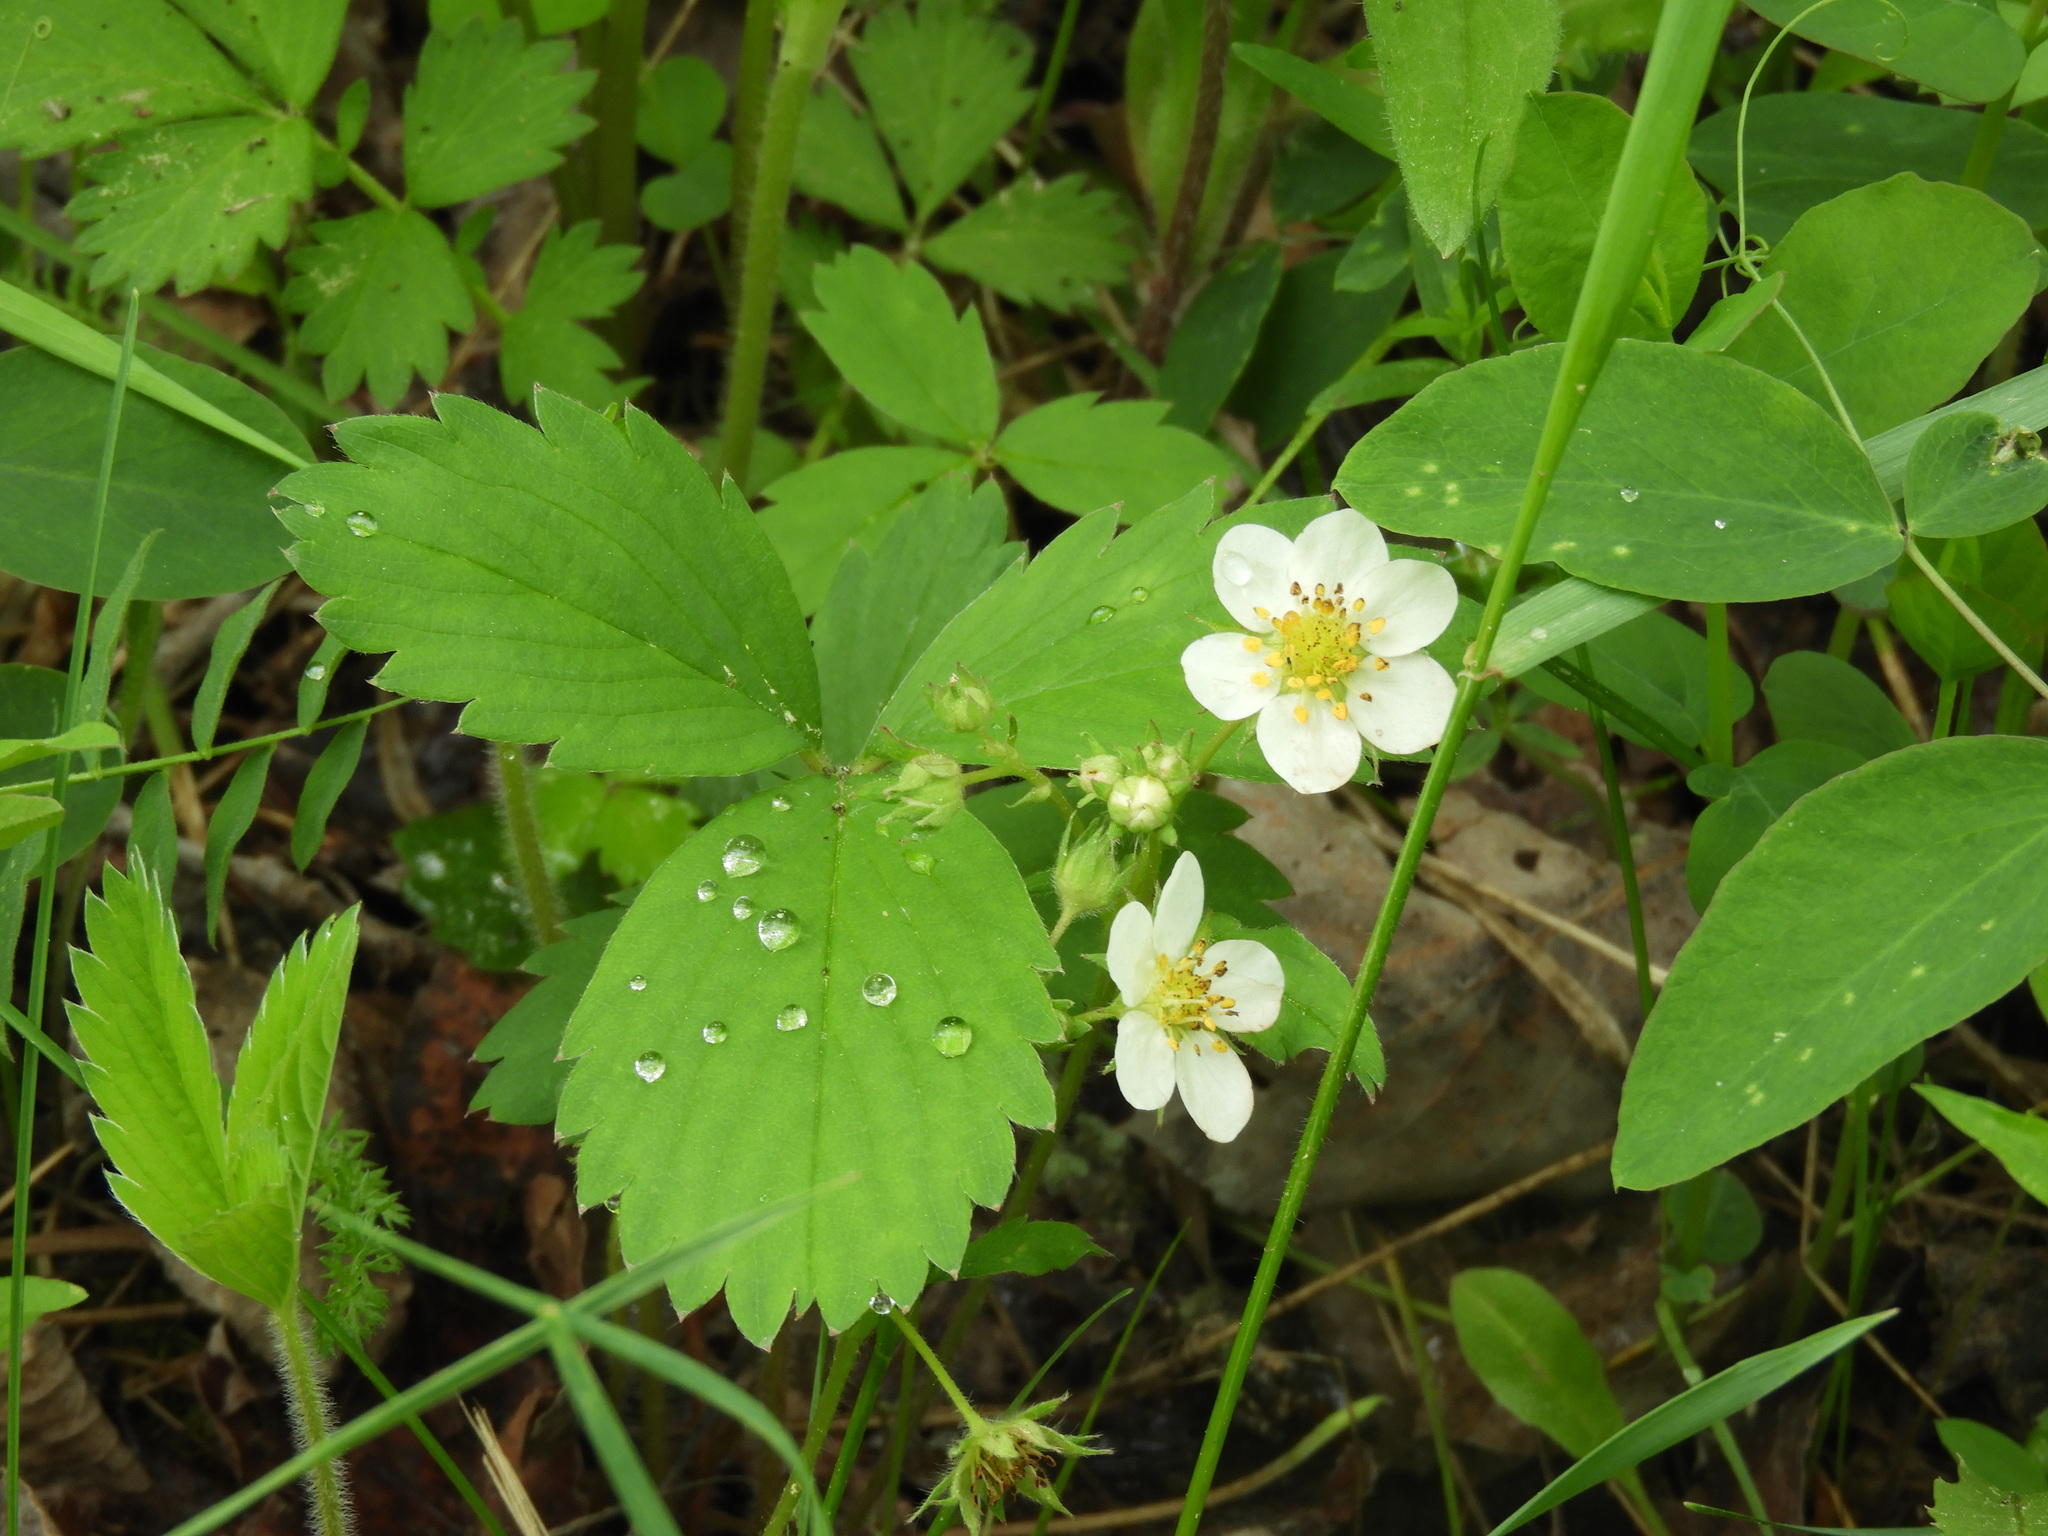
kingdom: Plantae
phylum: Tracheophyta
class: Magnoliopsida
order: Rosales
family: Rosaceae
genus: Fragaria
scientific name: Fragaria virginiana
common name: Thickleaved wild strawberry
